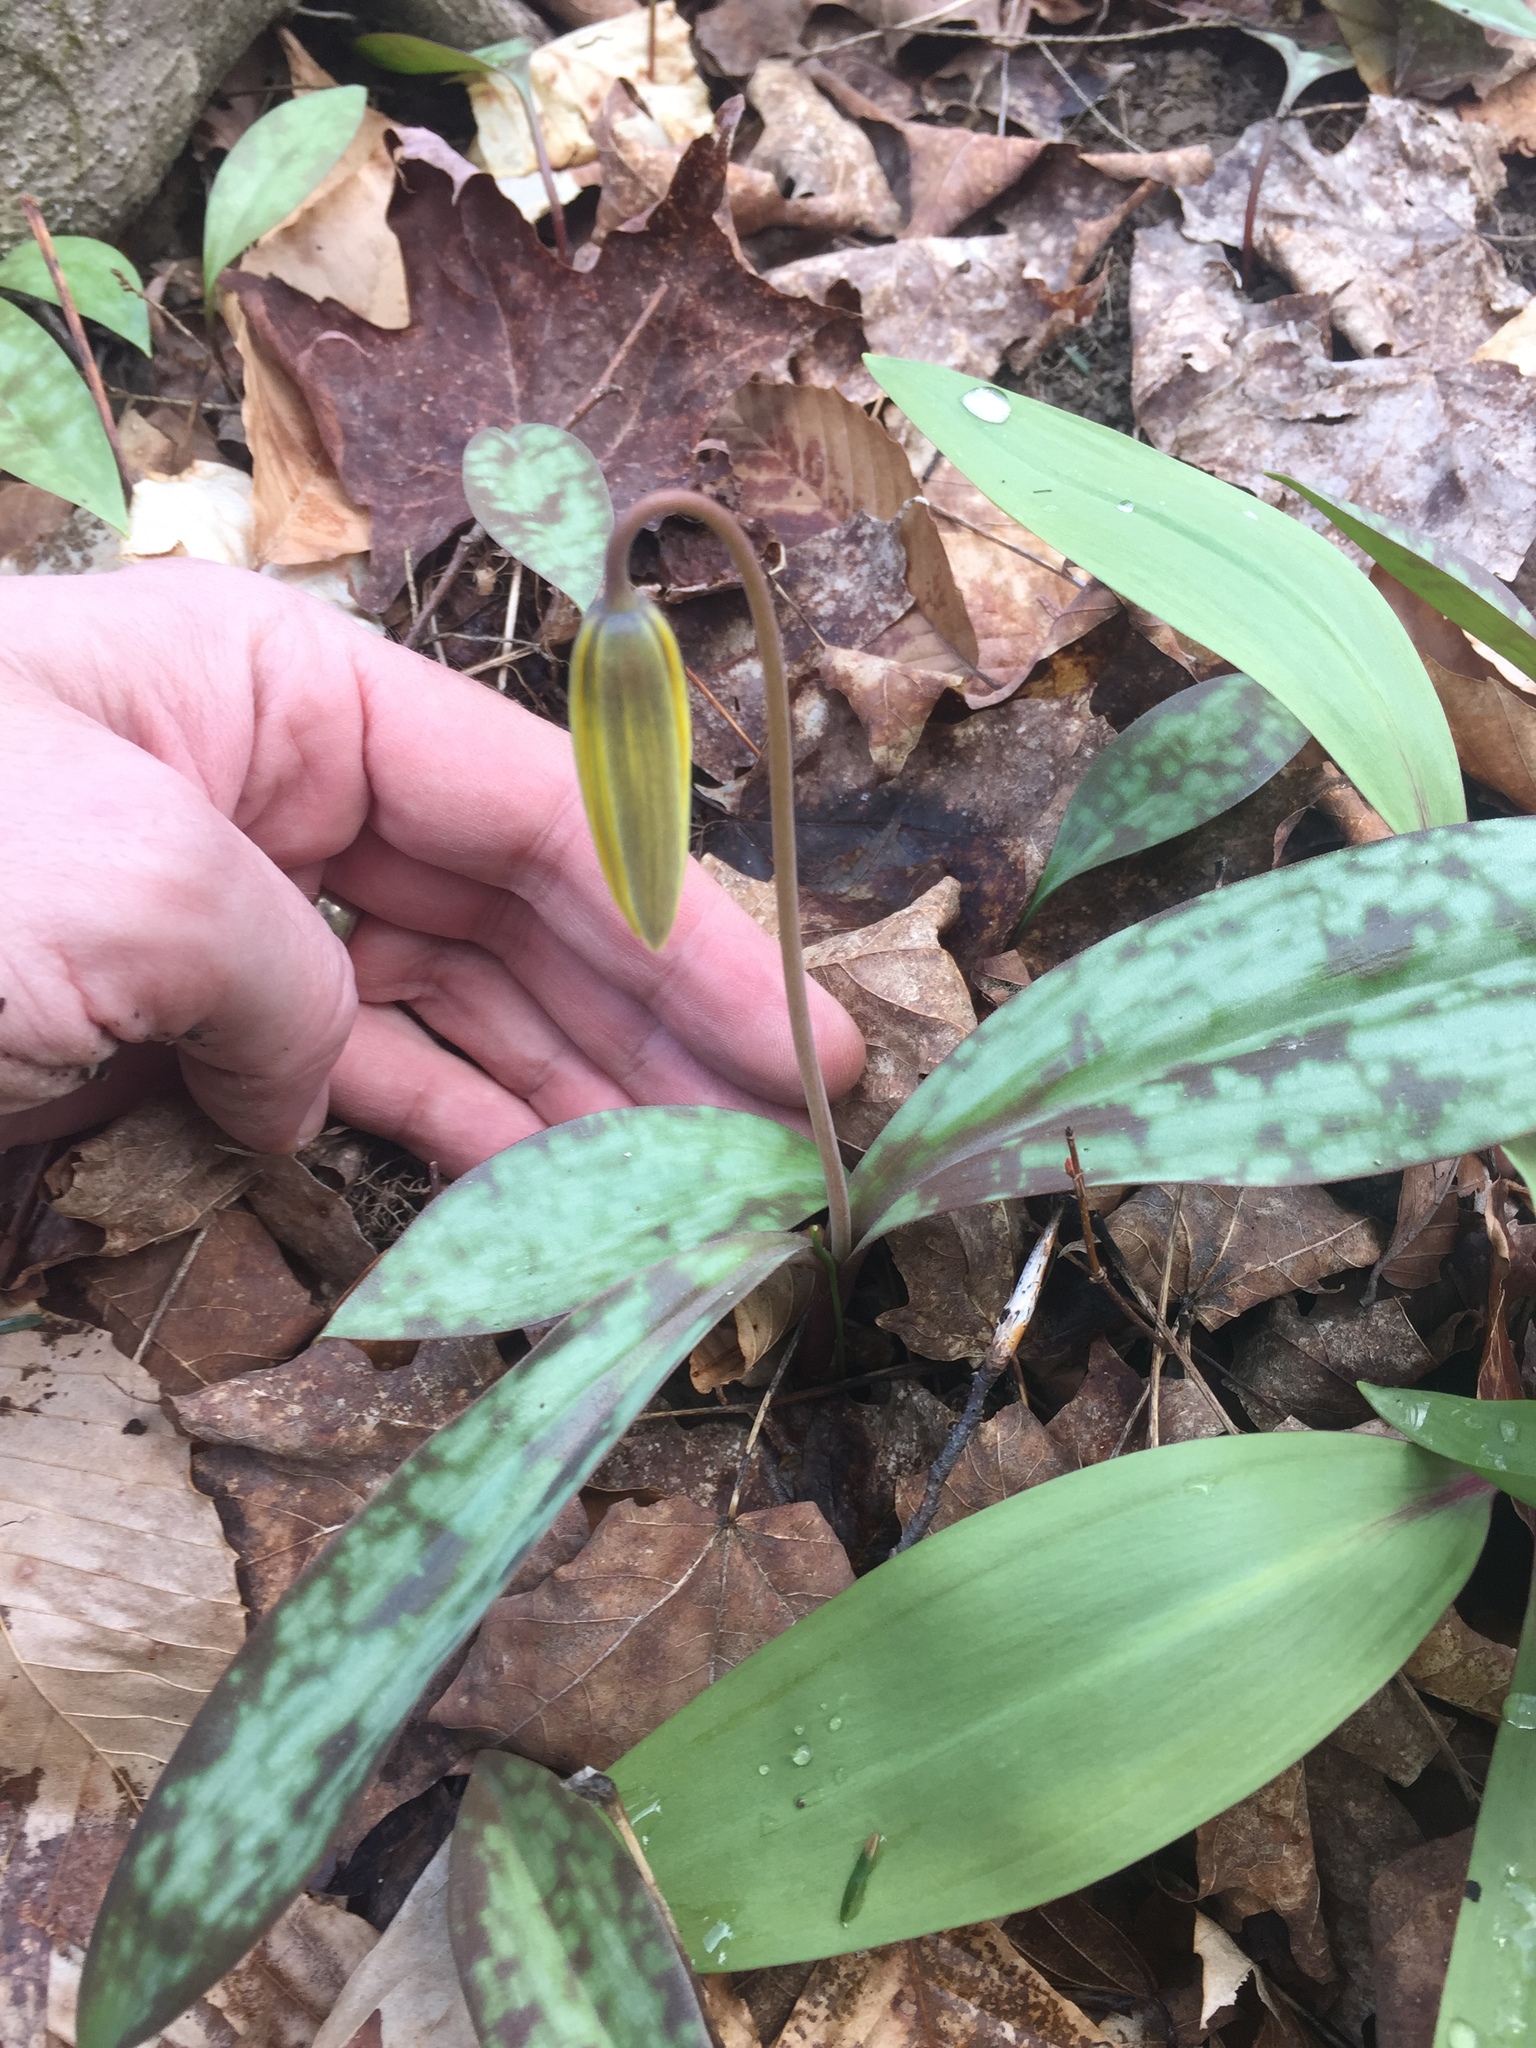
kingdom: Plantae
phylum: Tracheophyta
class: Liliopsida
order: Liliales
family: Liliaceae
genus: Erythronium
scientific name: Erythronium americanum
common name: Yellow adder's-tongue
